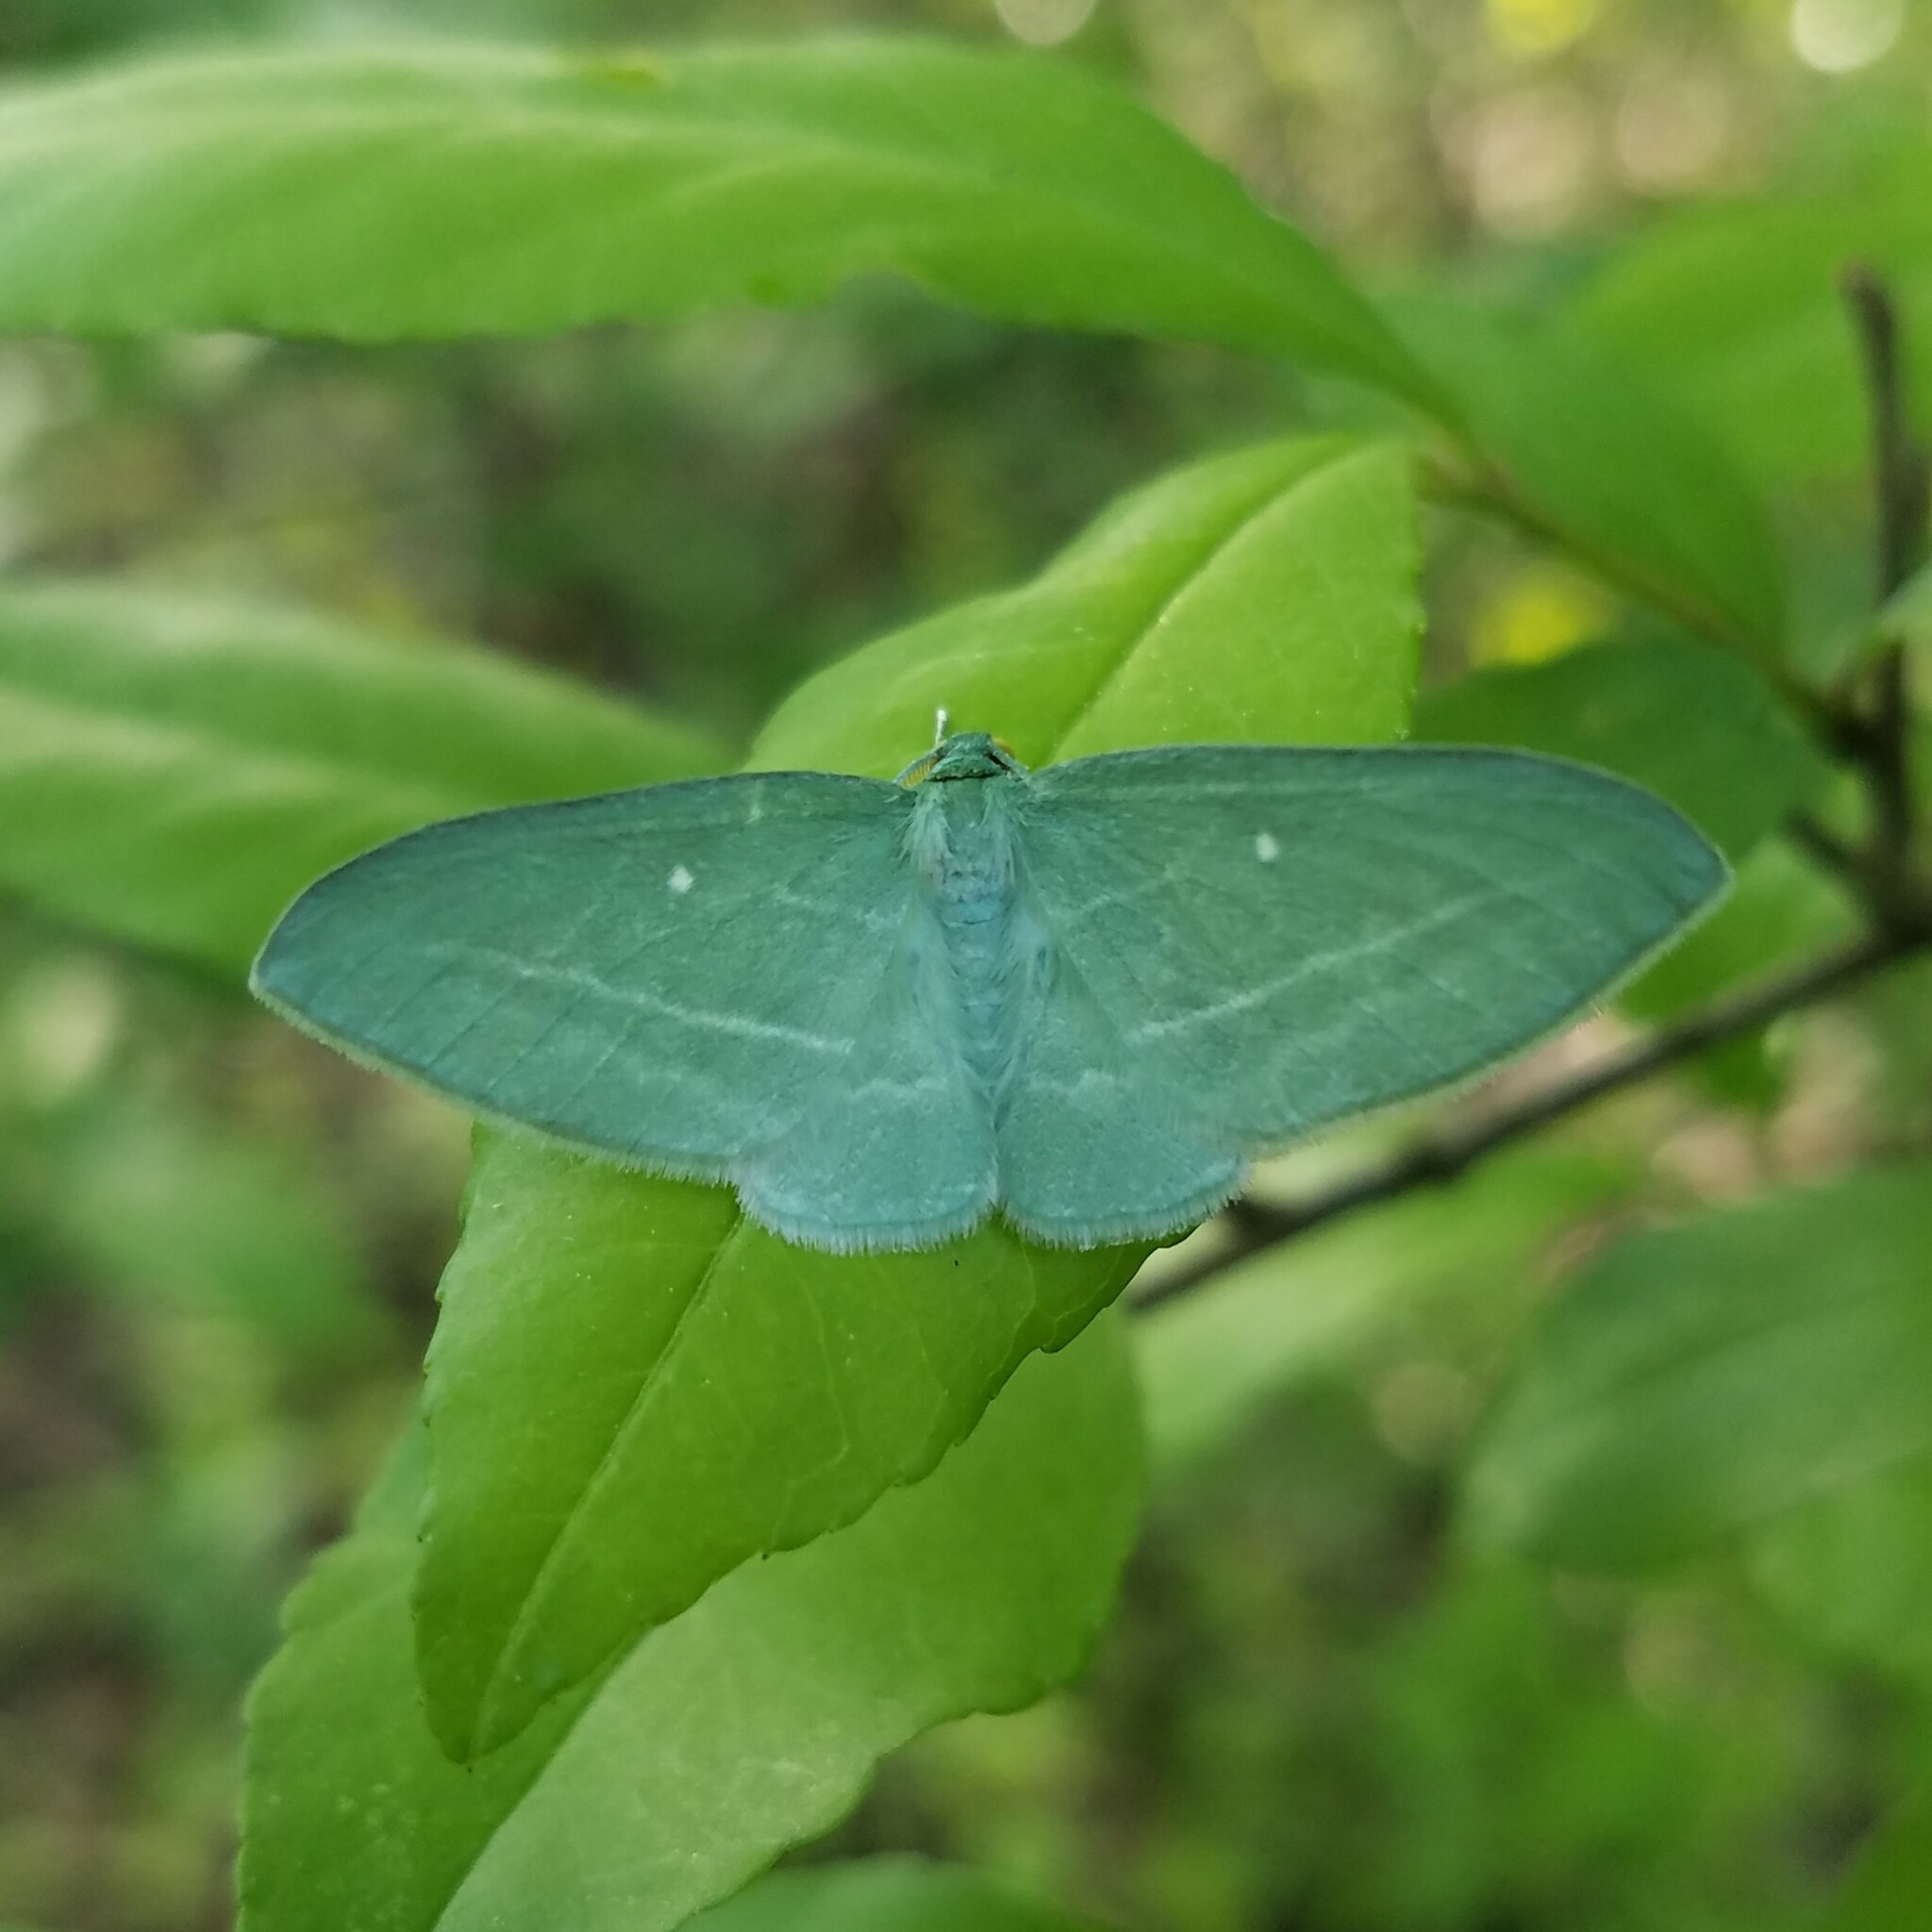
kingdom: Animalia
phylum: Arthropoda
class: Insecta
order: Lepidoptera
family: Geometridae
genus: Dyspteris
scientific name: Dyspteris abortivaria
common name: Bad-wing
